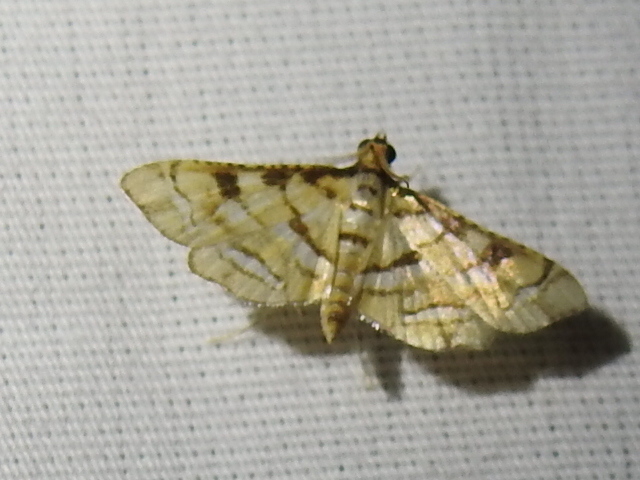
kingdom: Animalia
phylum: Arthropoda
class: Insecta
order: Lepidoptera
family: Crambidae
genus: Hileithia
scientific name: Hileithia magualis
